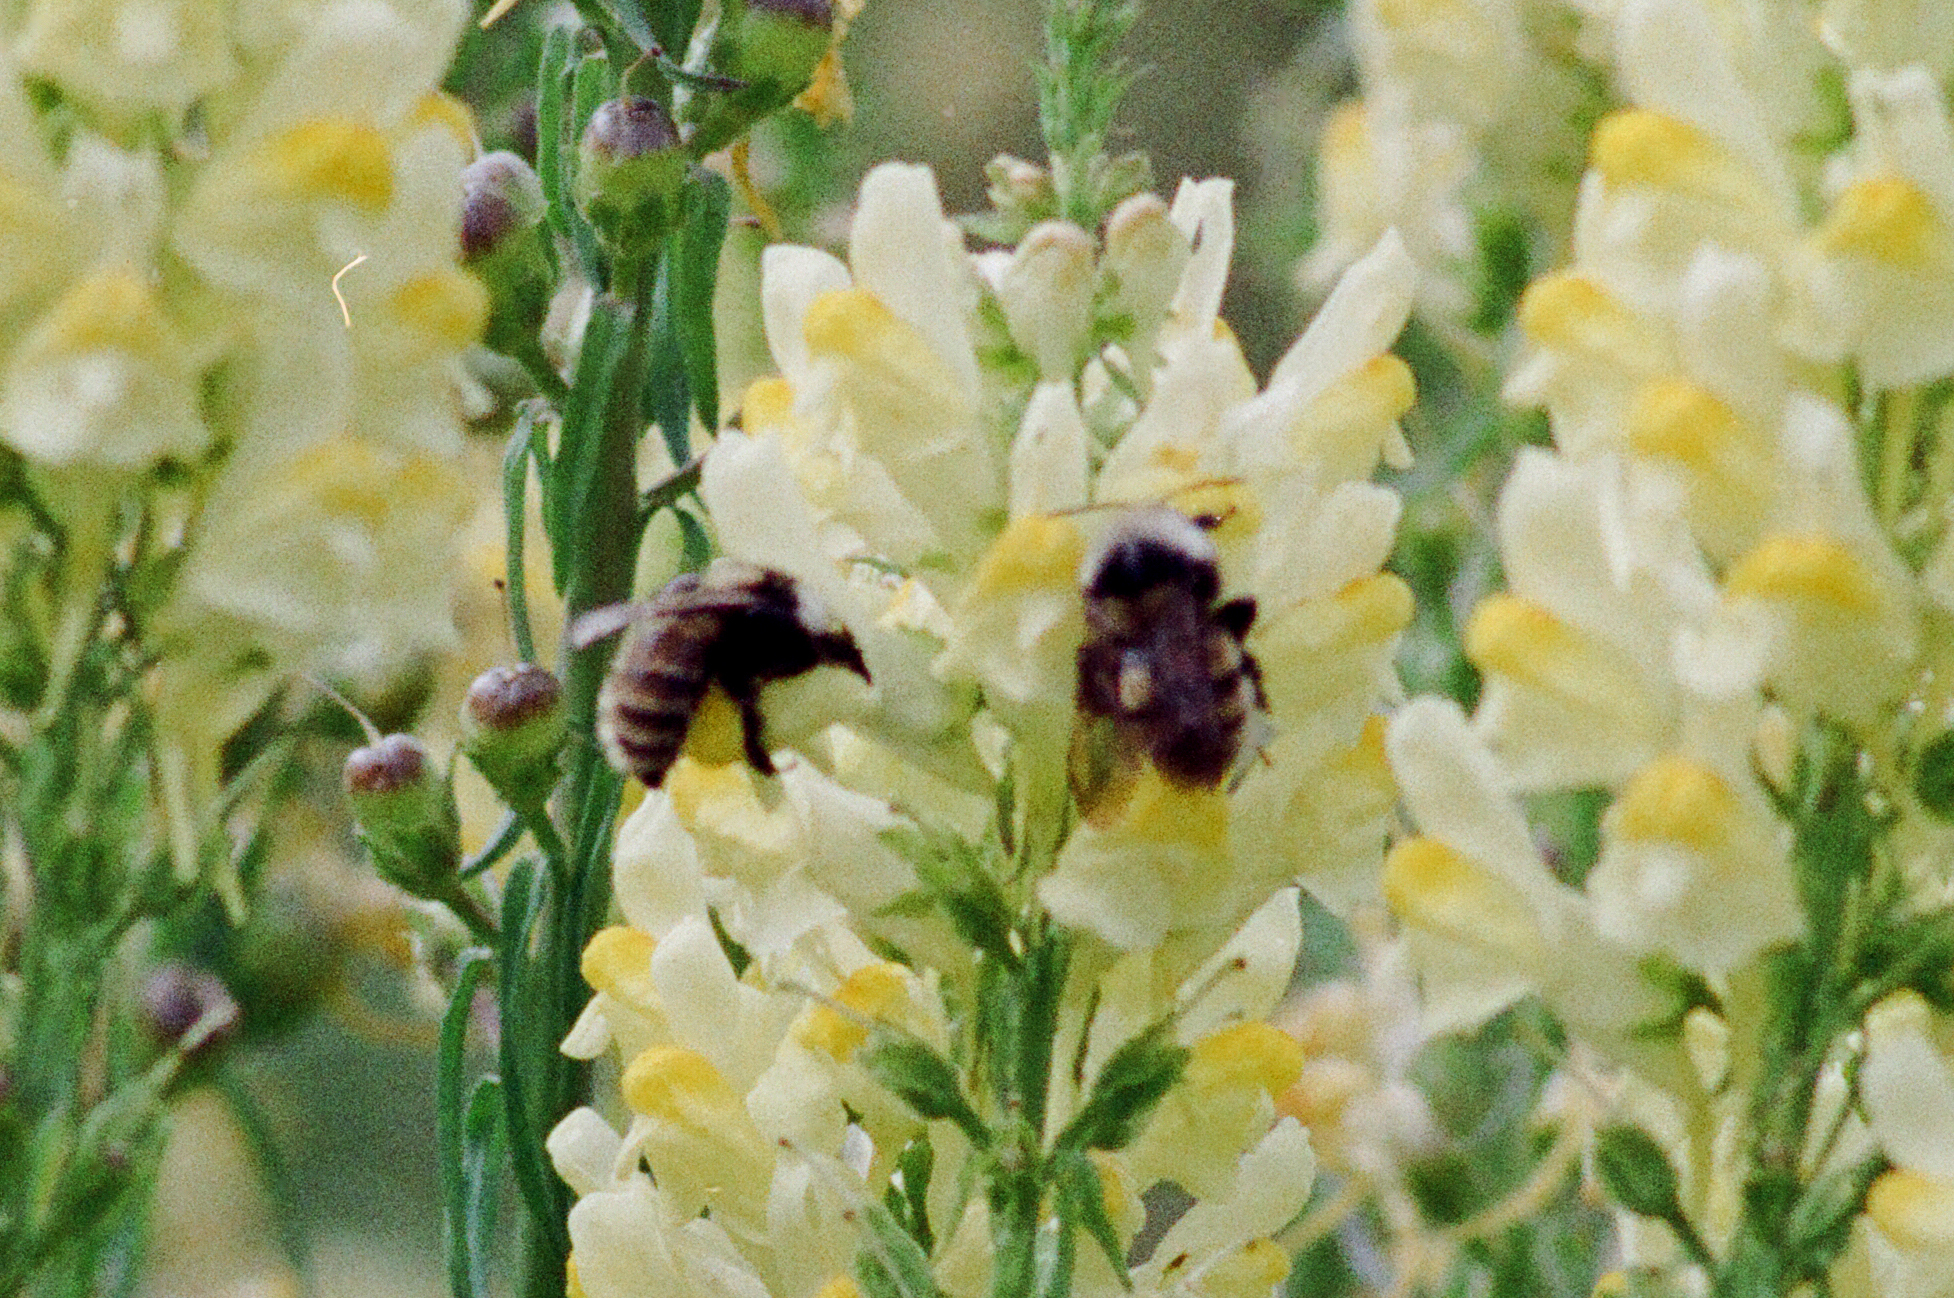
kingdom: Animalia
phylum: Arthropoda
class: Insecta
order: Hymenoptera
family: Apidae
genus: Bombus
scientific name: Bombus appositus
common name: White-shouldered bumble bee
